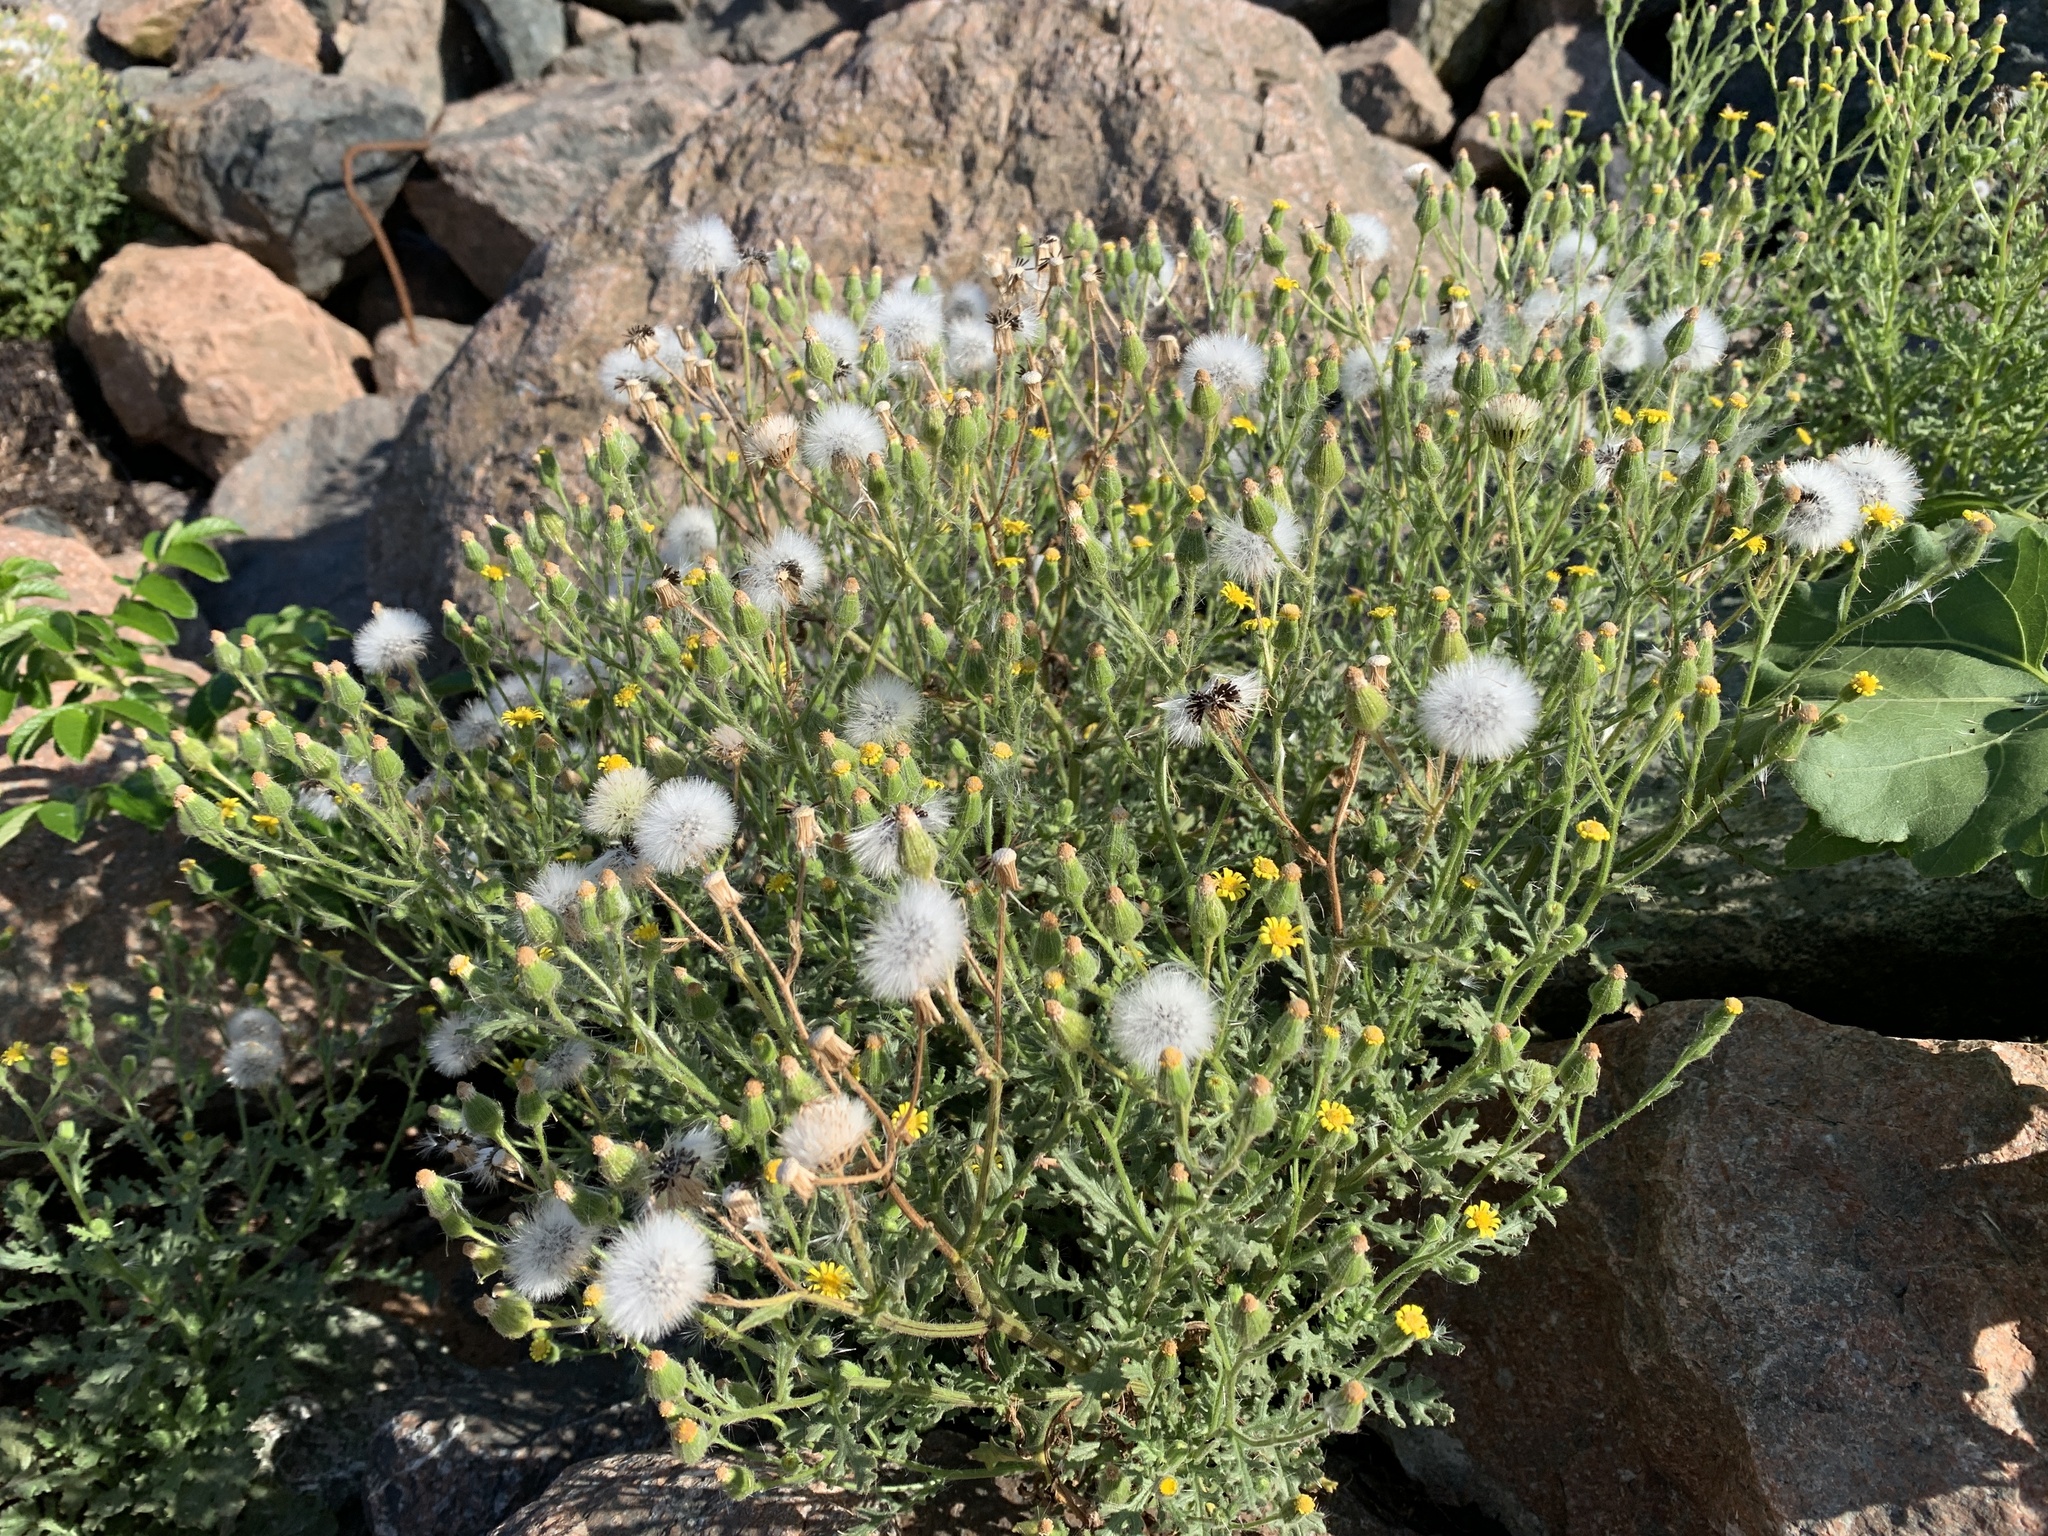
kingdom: Plantae
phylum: Tracheophyta
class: Magnoliopsida
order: Asterales
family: Asteraceae
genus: Senecio
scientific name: Senecio viscosus
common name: Sticky groundsel
